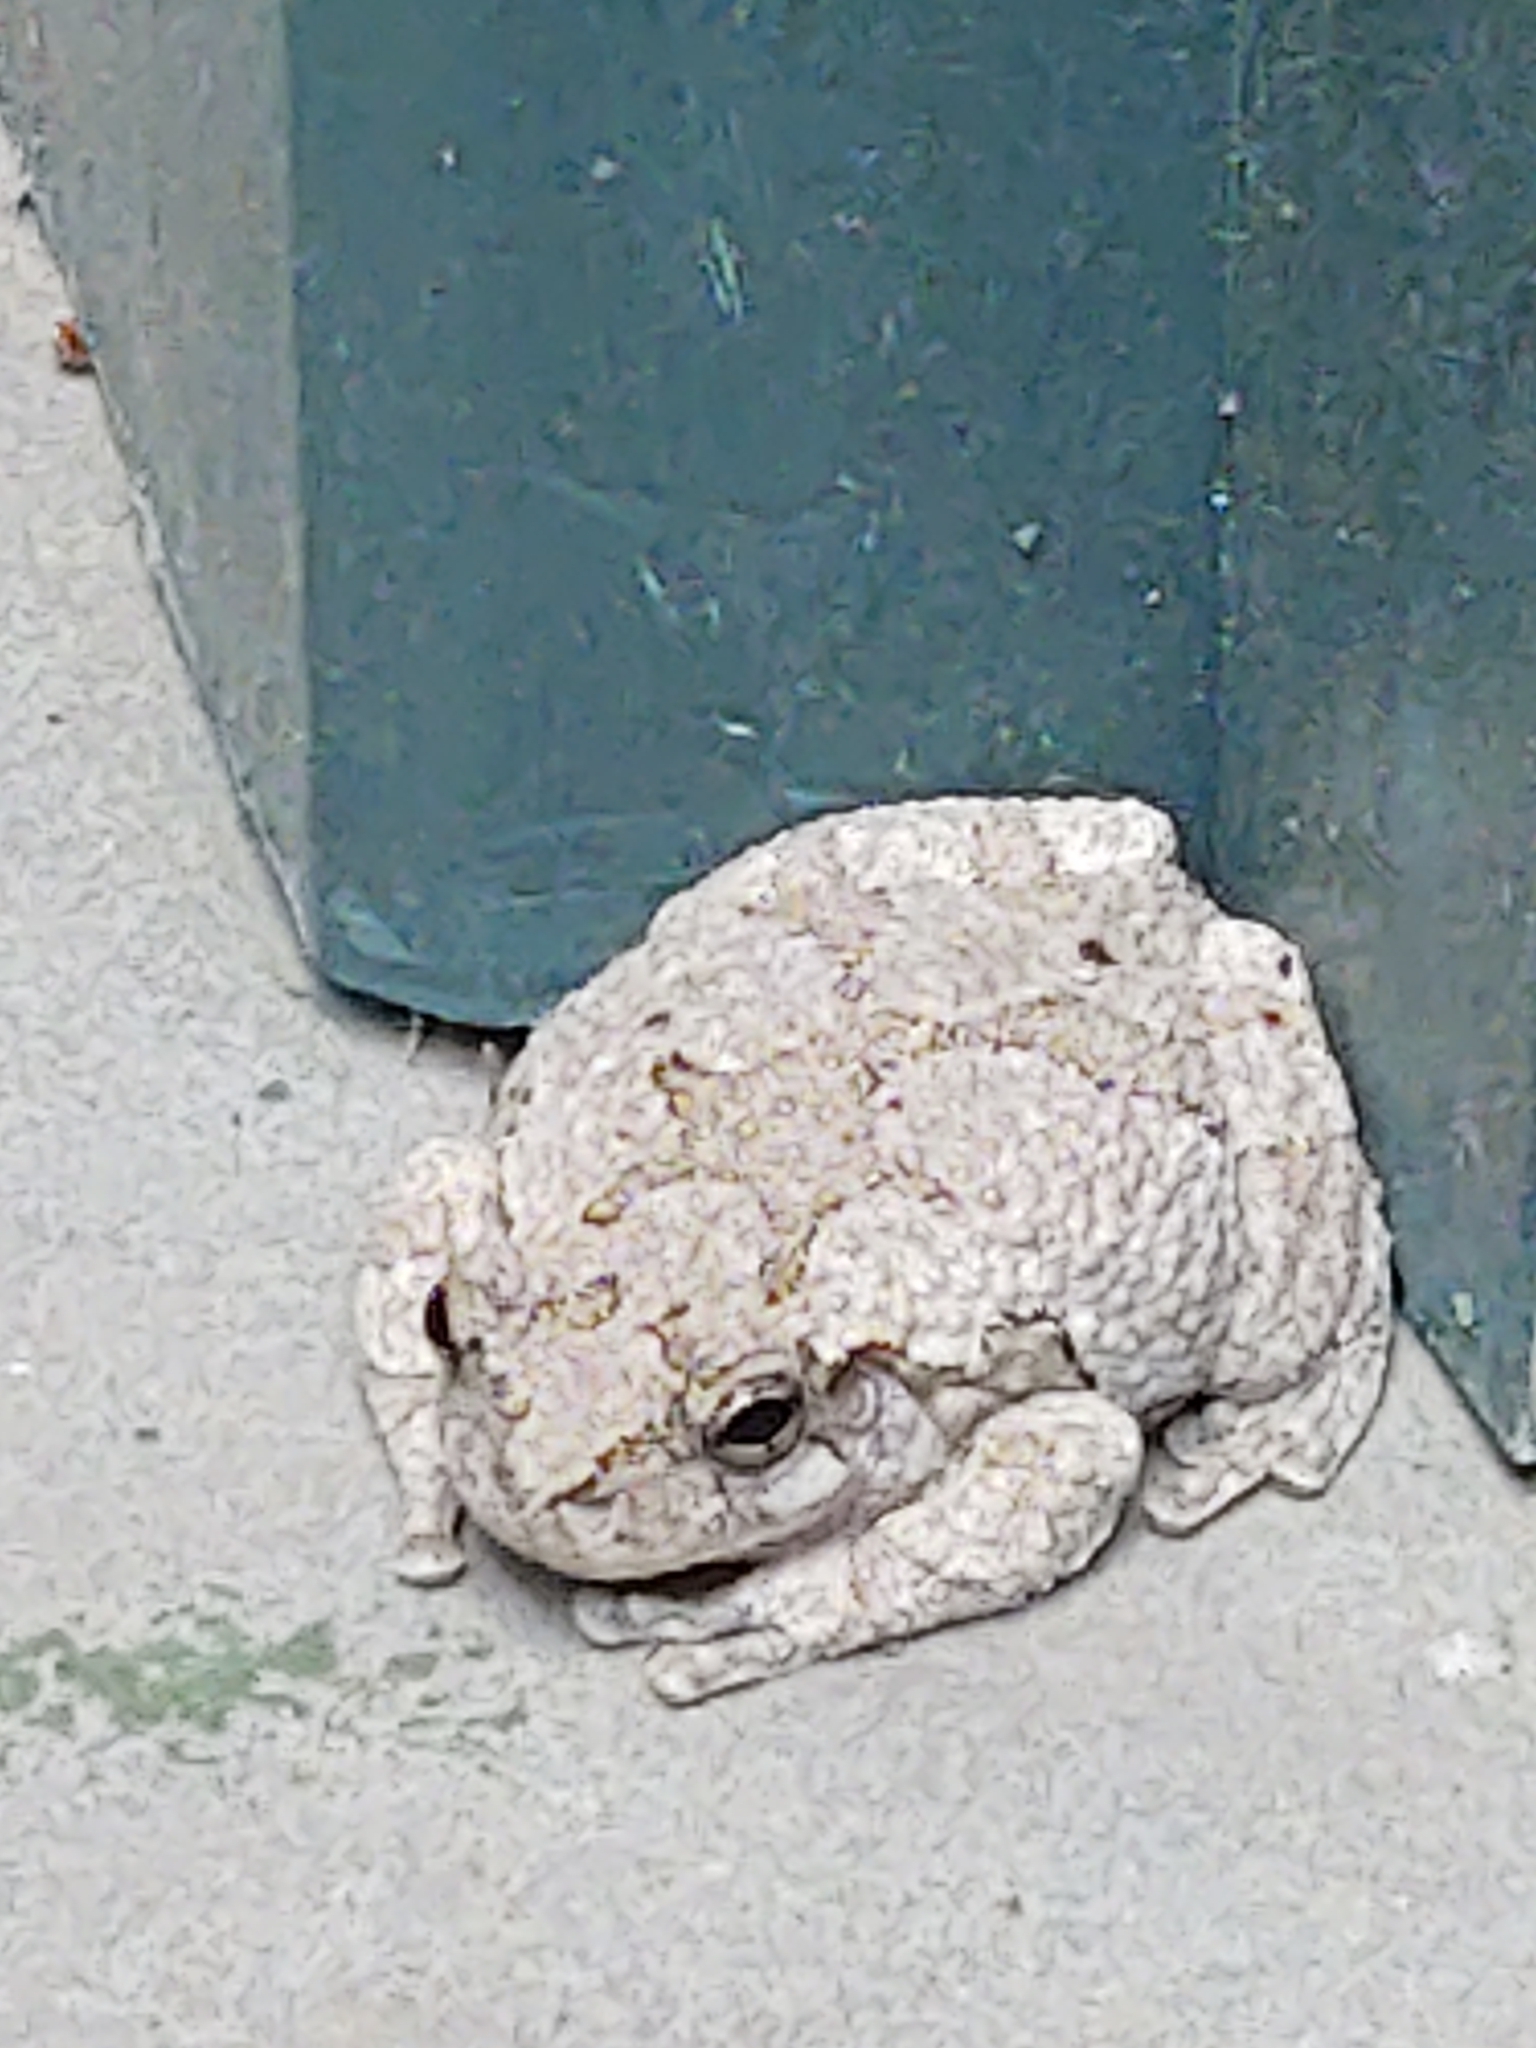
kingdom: Animalia
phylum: Chordata
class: Amphibia
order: Anura
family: Hylidae
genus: Dryophytes
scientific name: Dryophytes versicolor
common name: Gray treefrog
